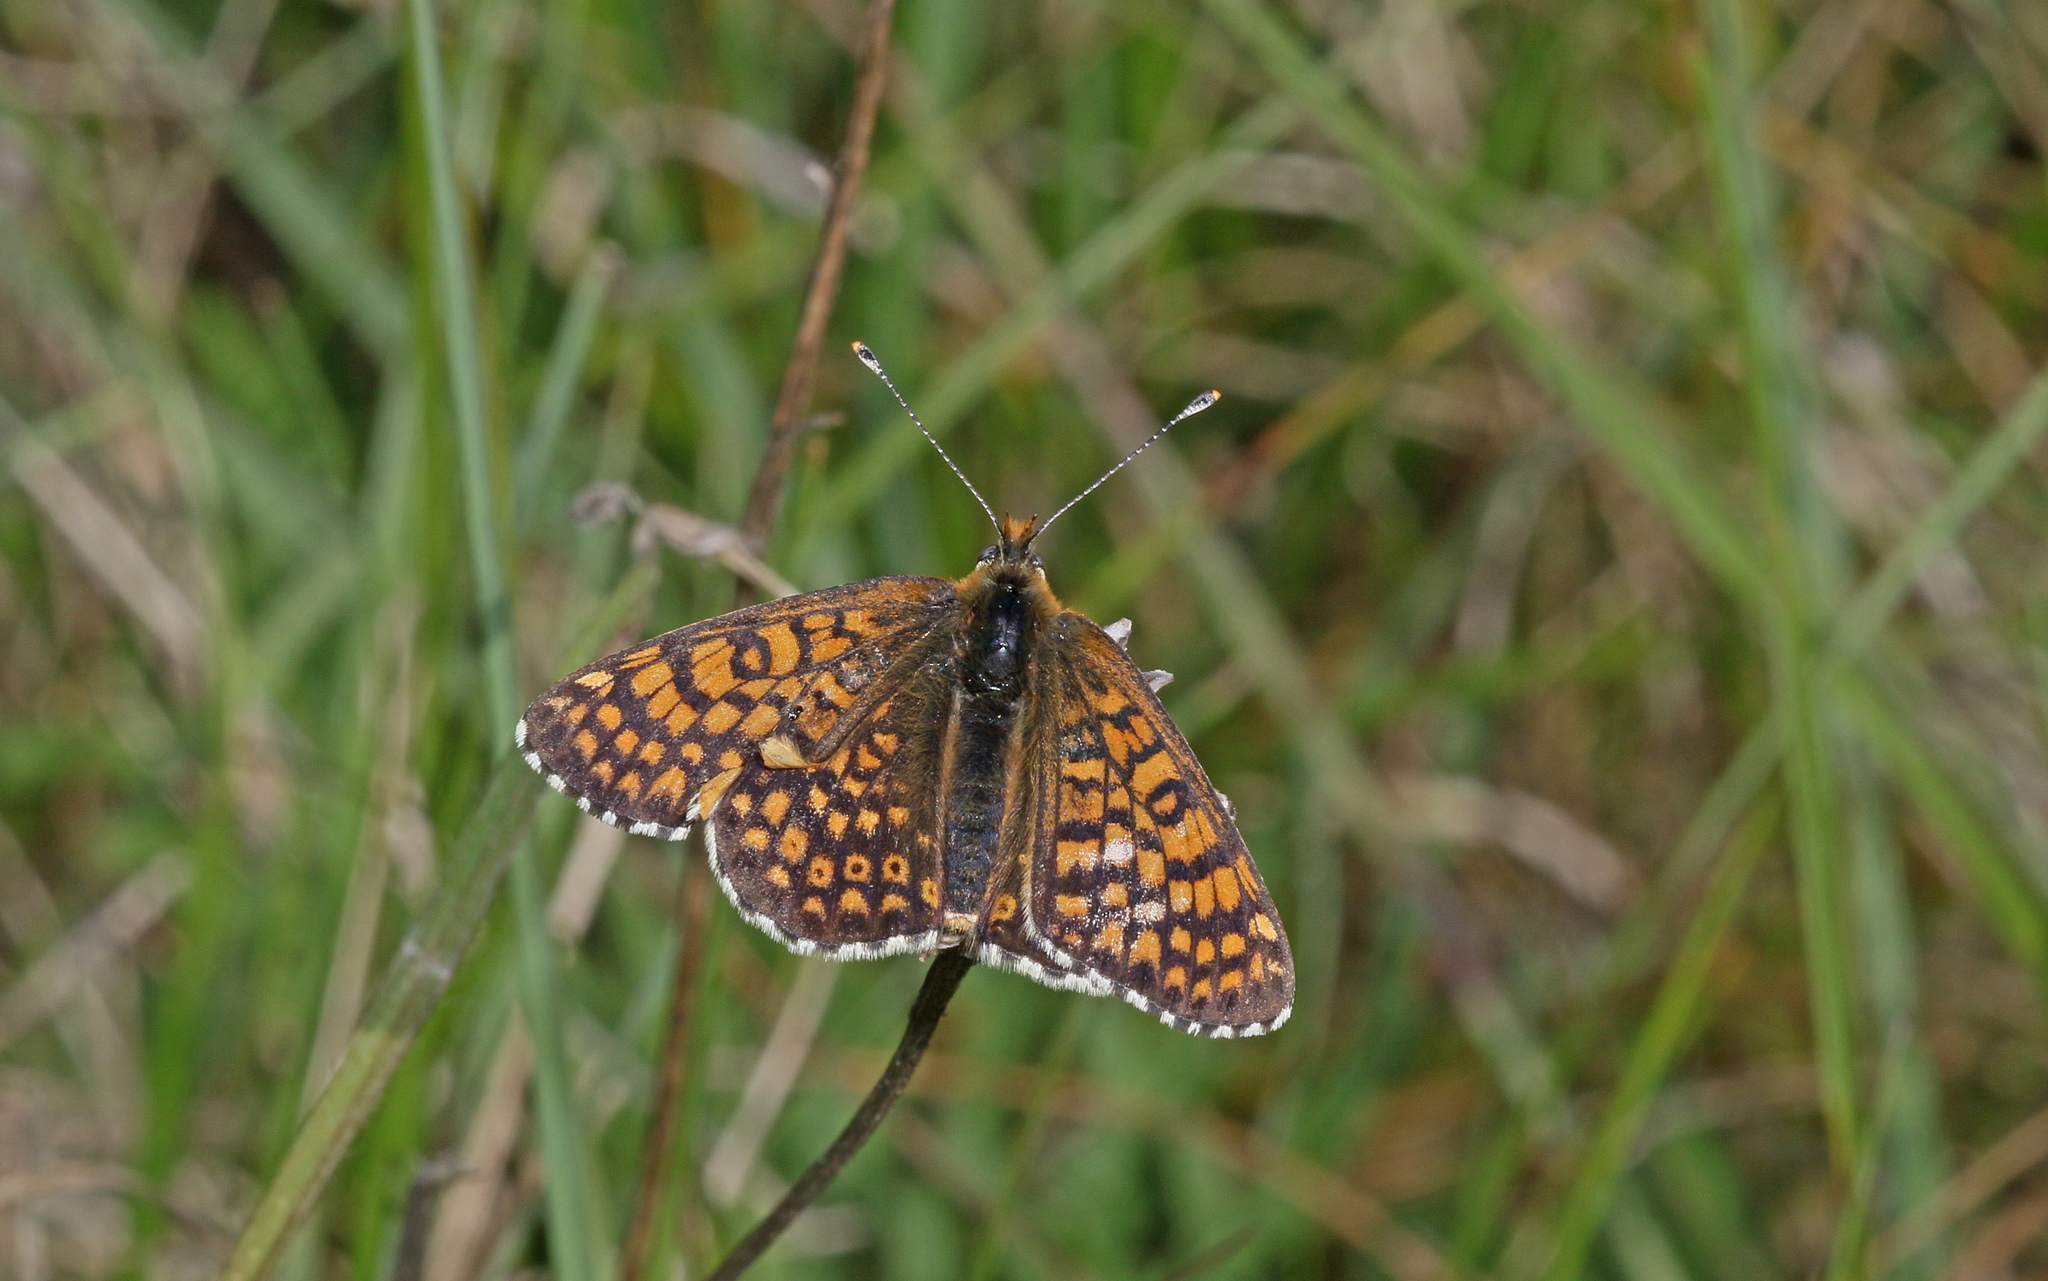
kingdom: Animalia
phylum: Arthropoda
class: Insecta
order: Lepidoptera
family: Nymphalidae
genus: Melitaea
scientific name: Melitaea cinxia
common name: Glanville fritillary
